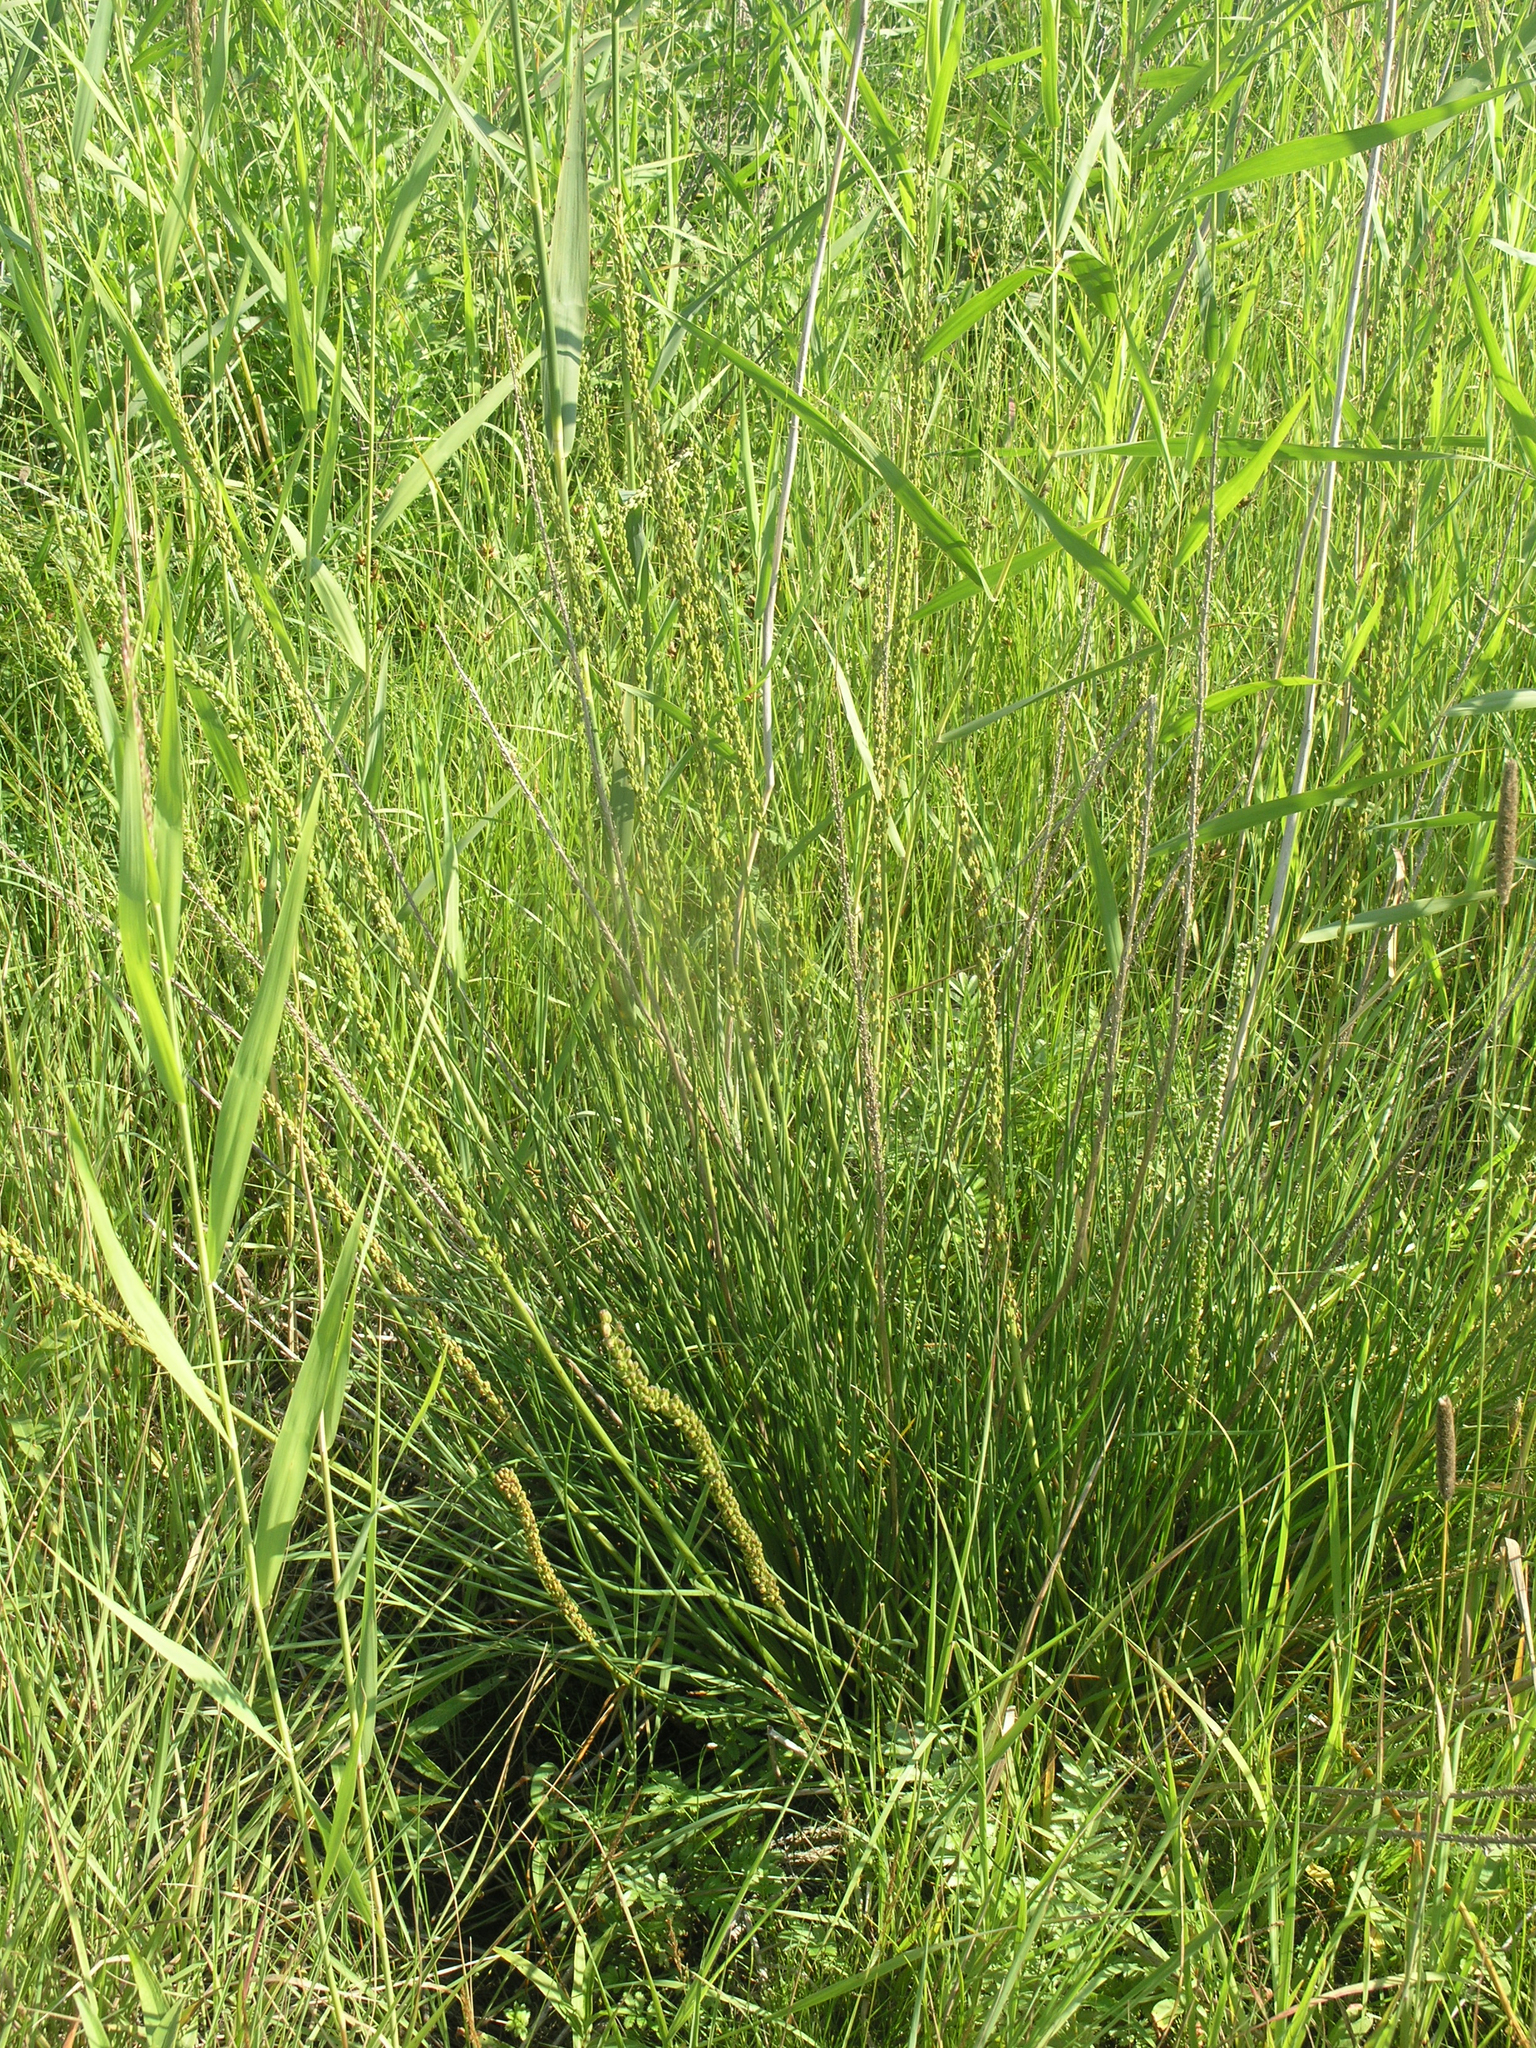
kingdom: Plantae
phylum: Tracheophyta
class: Liliopsida
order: Alismatales
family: Juncaginaceae
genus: Triglochin
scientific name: Triglochin maritima
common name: Sea arrowgrass
